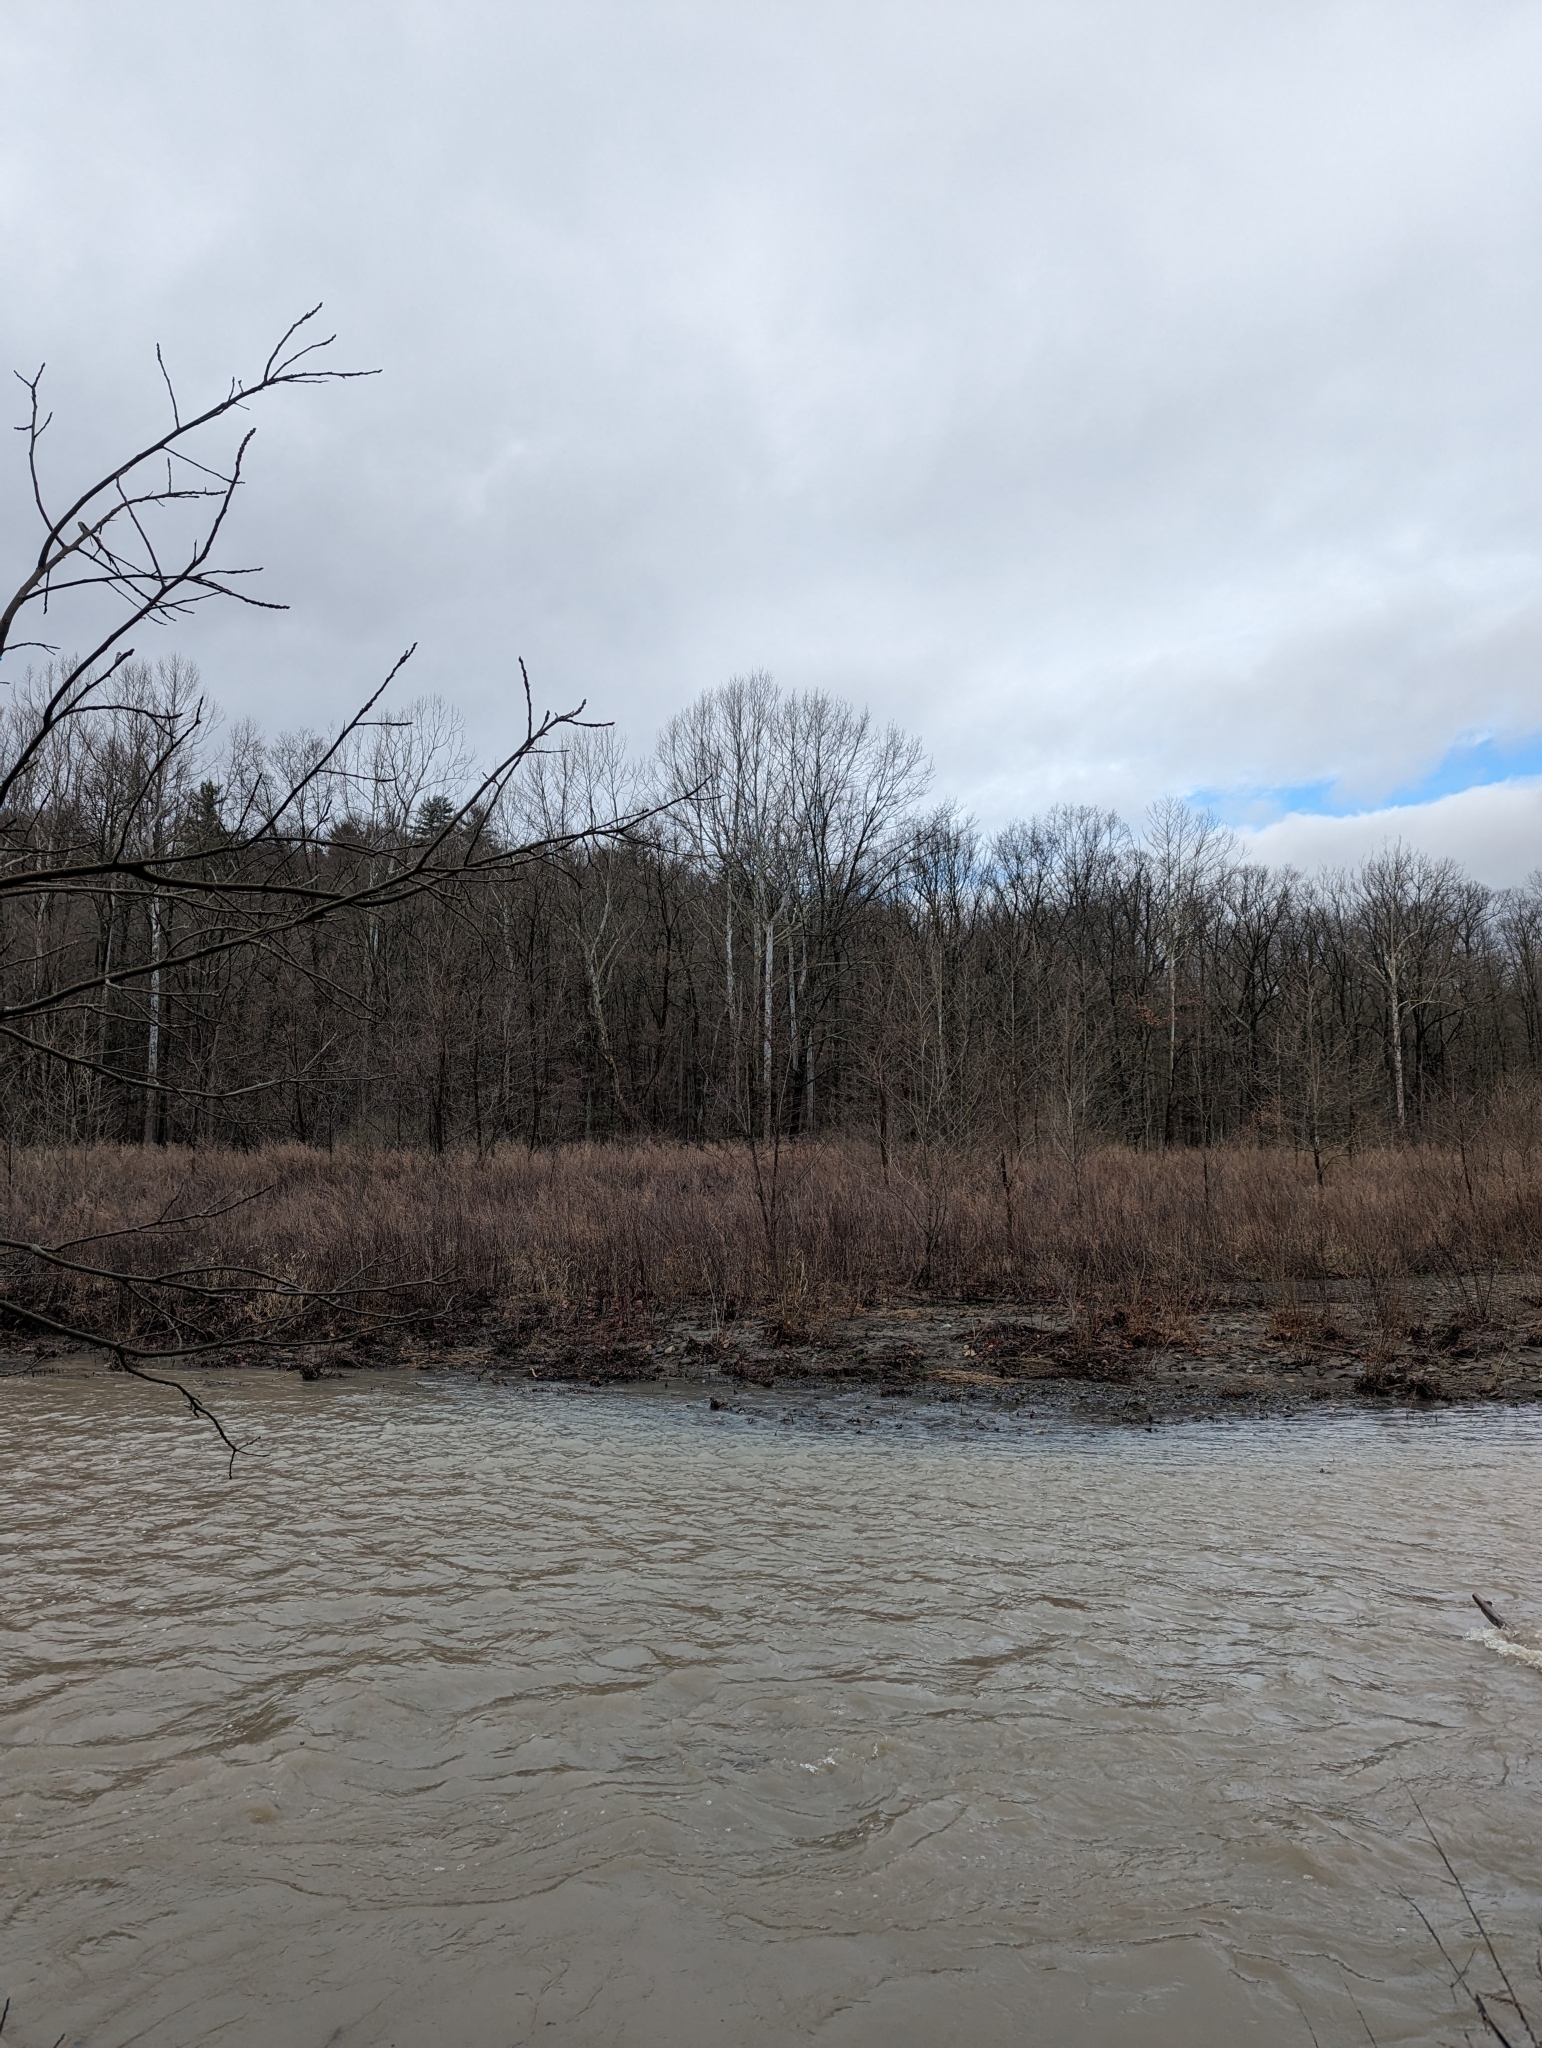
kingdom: Plantae
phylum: Tracheophyta
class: Magnoliopsida
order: Proteales
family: Platanaceae
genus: Platanus
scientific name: Platanus occidentalis
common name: American sycamore
